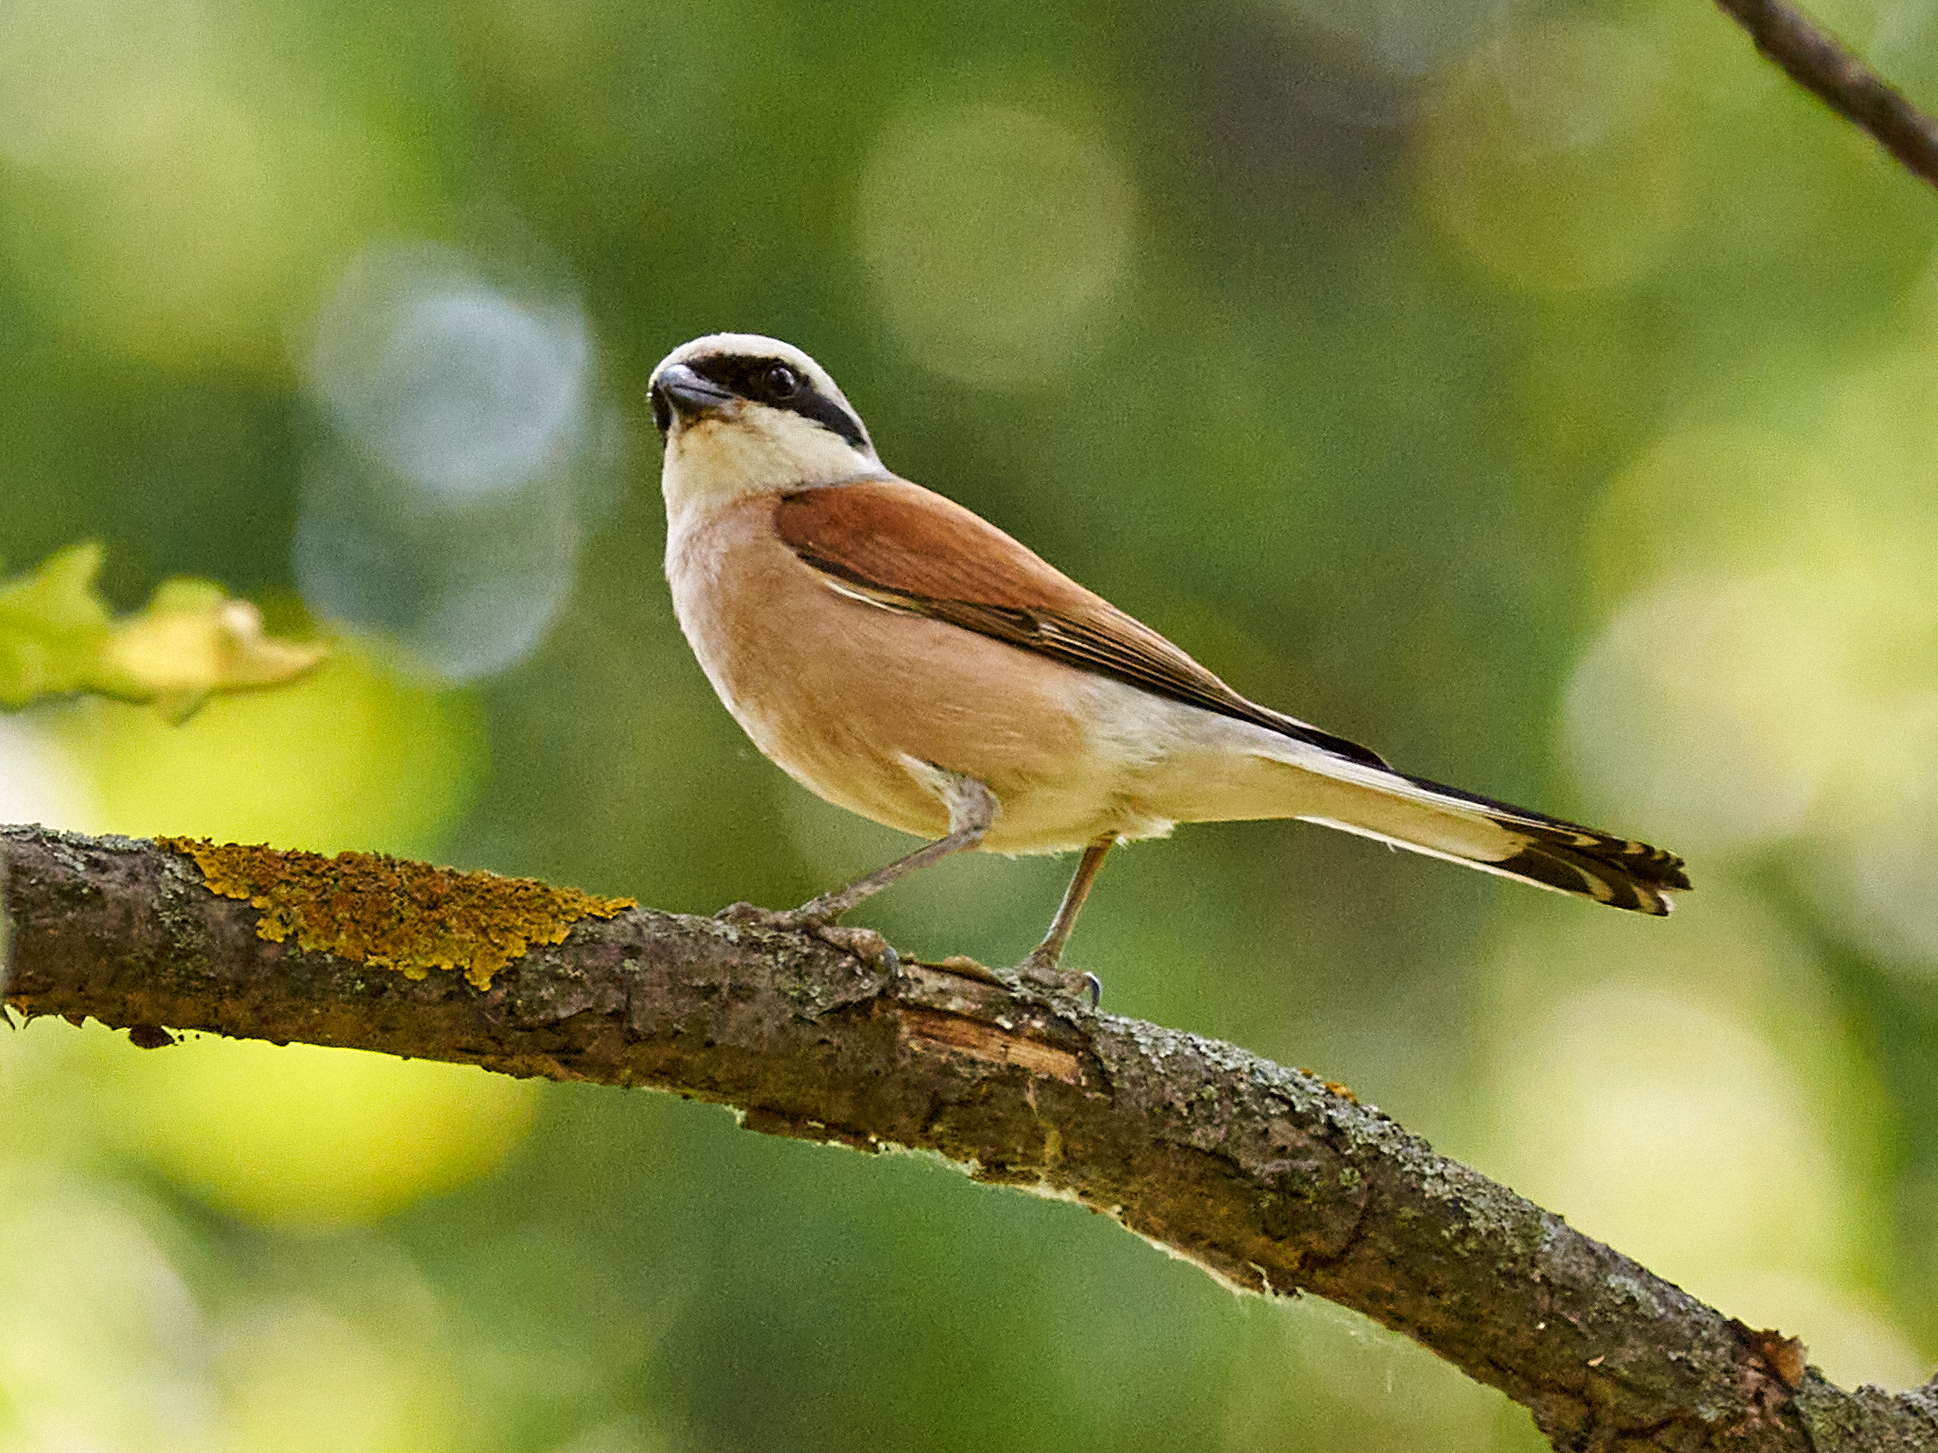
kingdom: Animalia
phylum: Chordata
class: Aves
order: Passeriformes
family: Laniidae
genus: Lanius
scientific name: Lanius collurio
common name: Red-backed shrike
